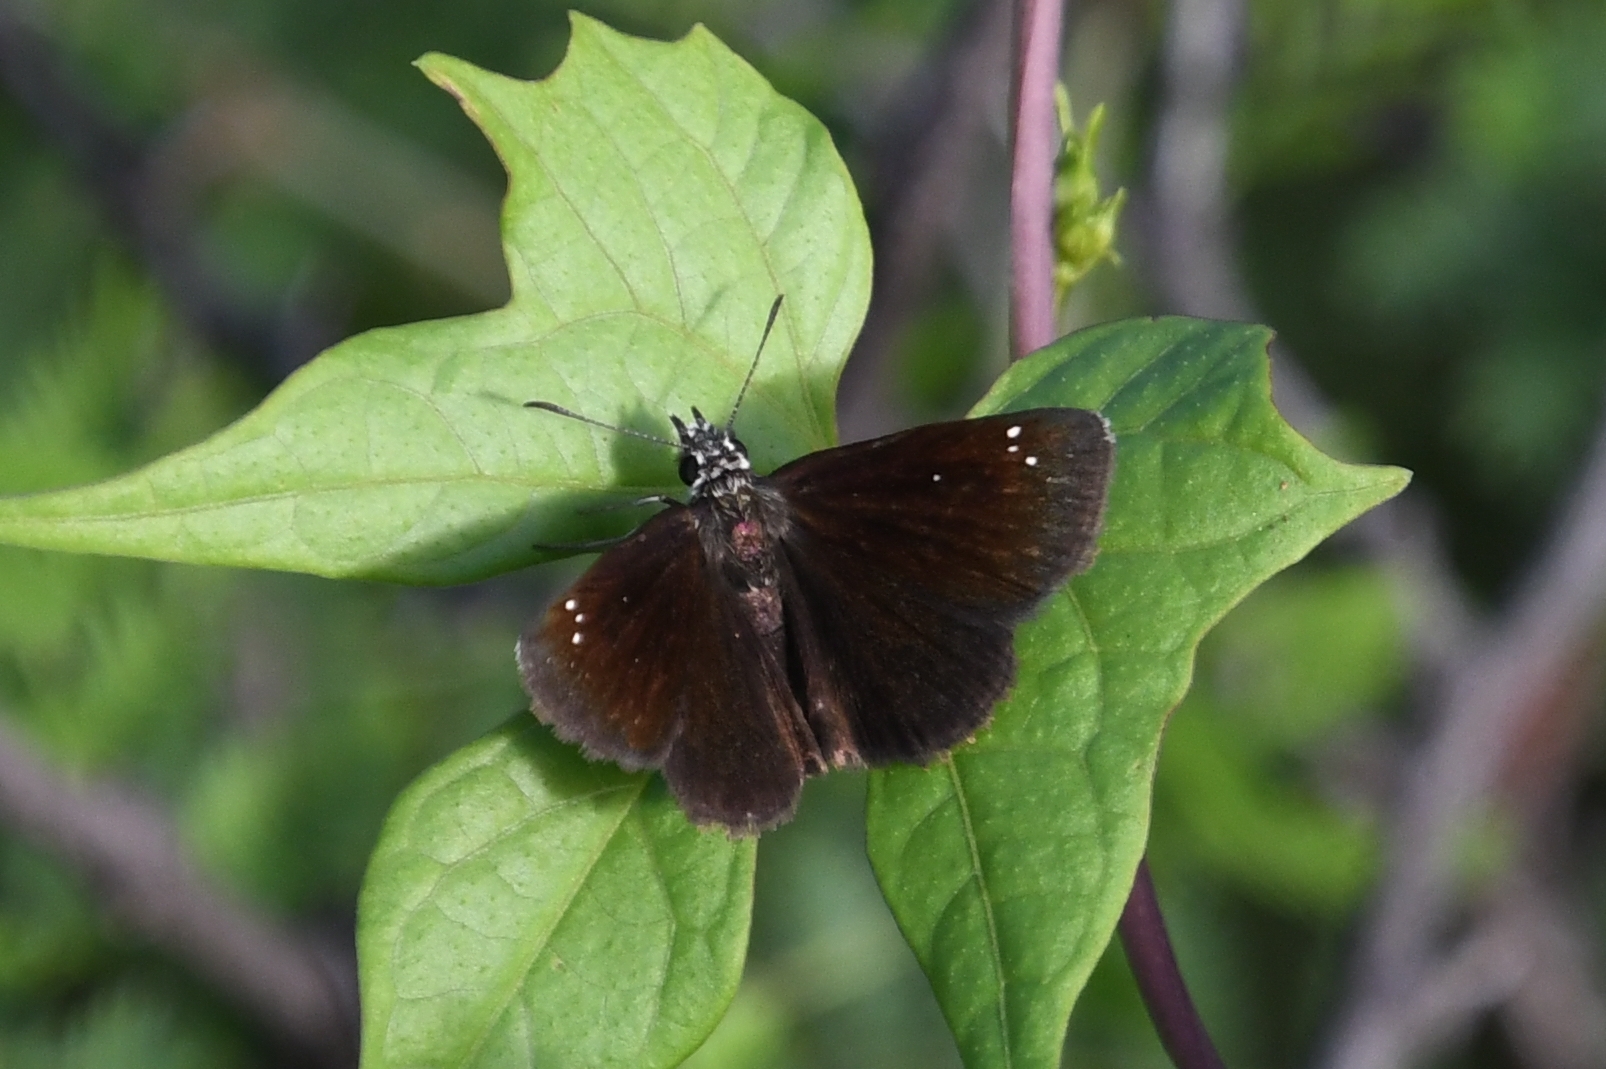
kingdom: Animalia
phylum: Arthropoda
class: Insecta
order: Lepidoptera
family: Hesperiidae
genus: Pholisora
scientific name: Pholisora catullus
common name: Common sootywing
